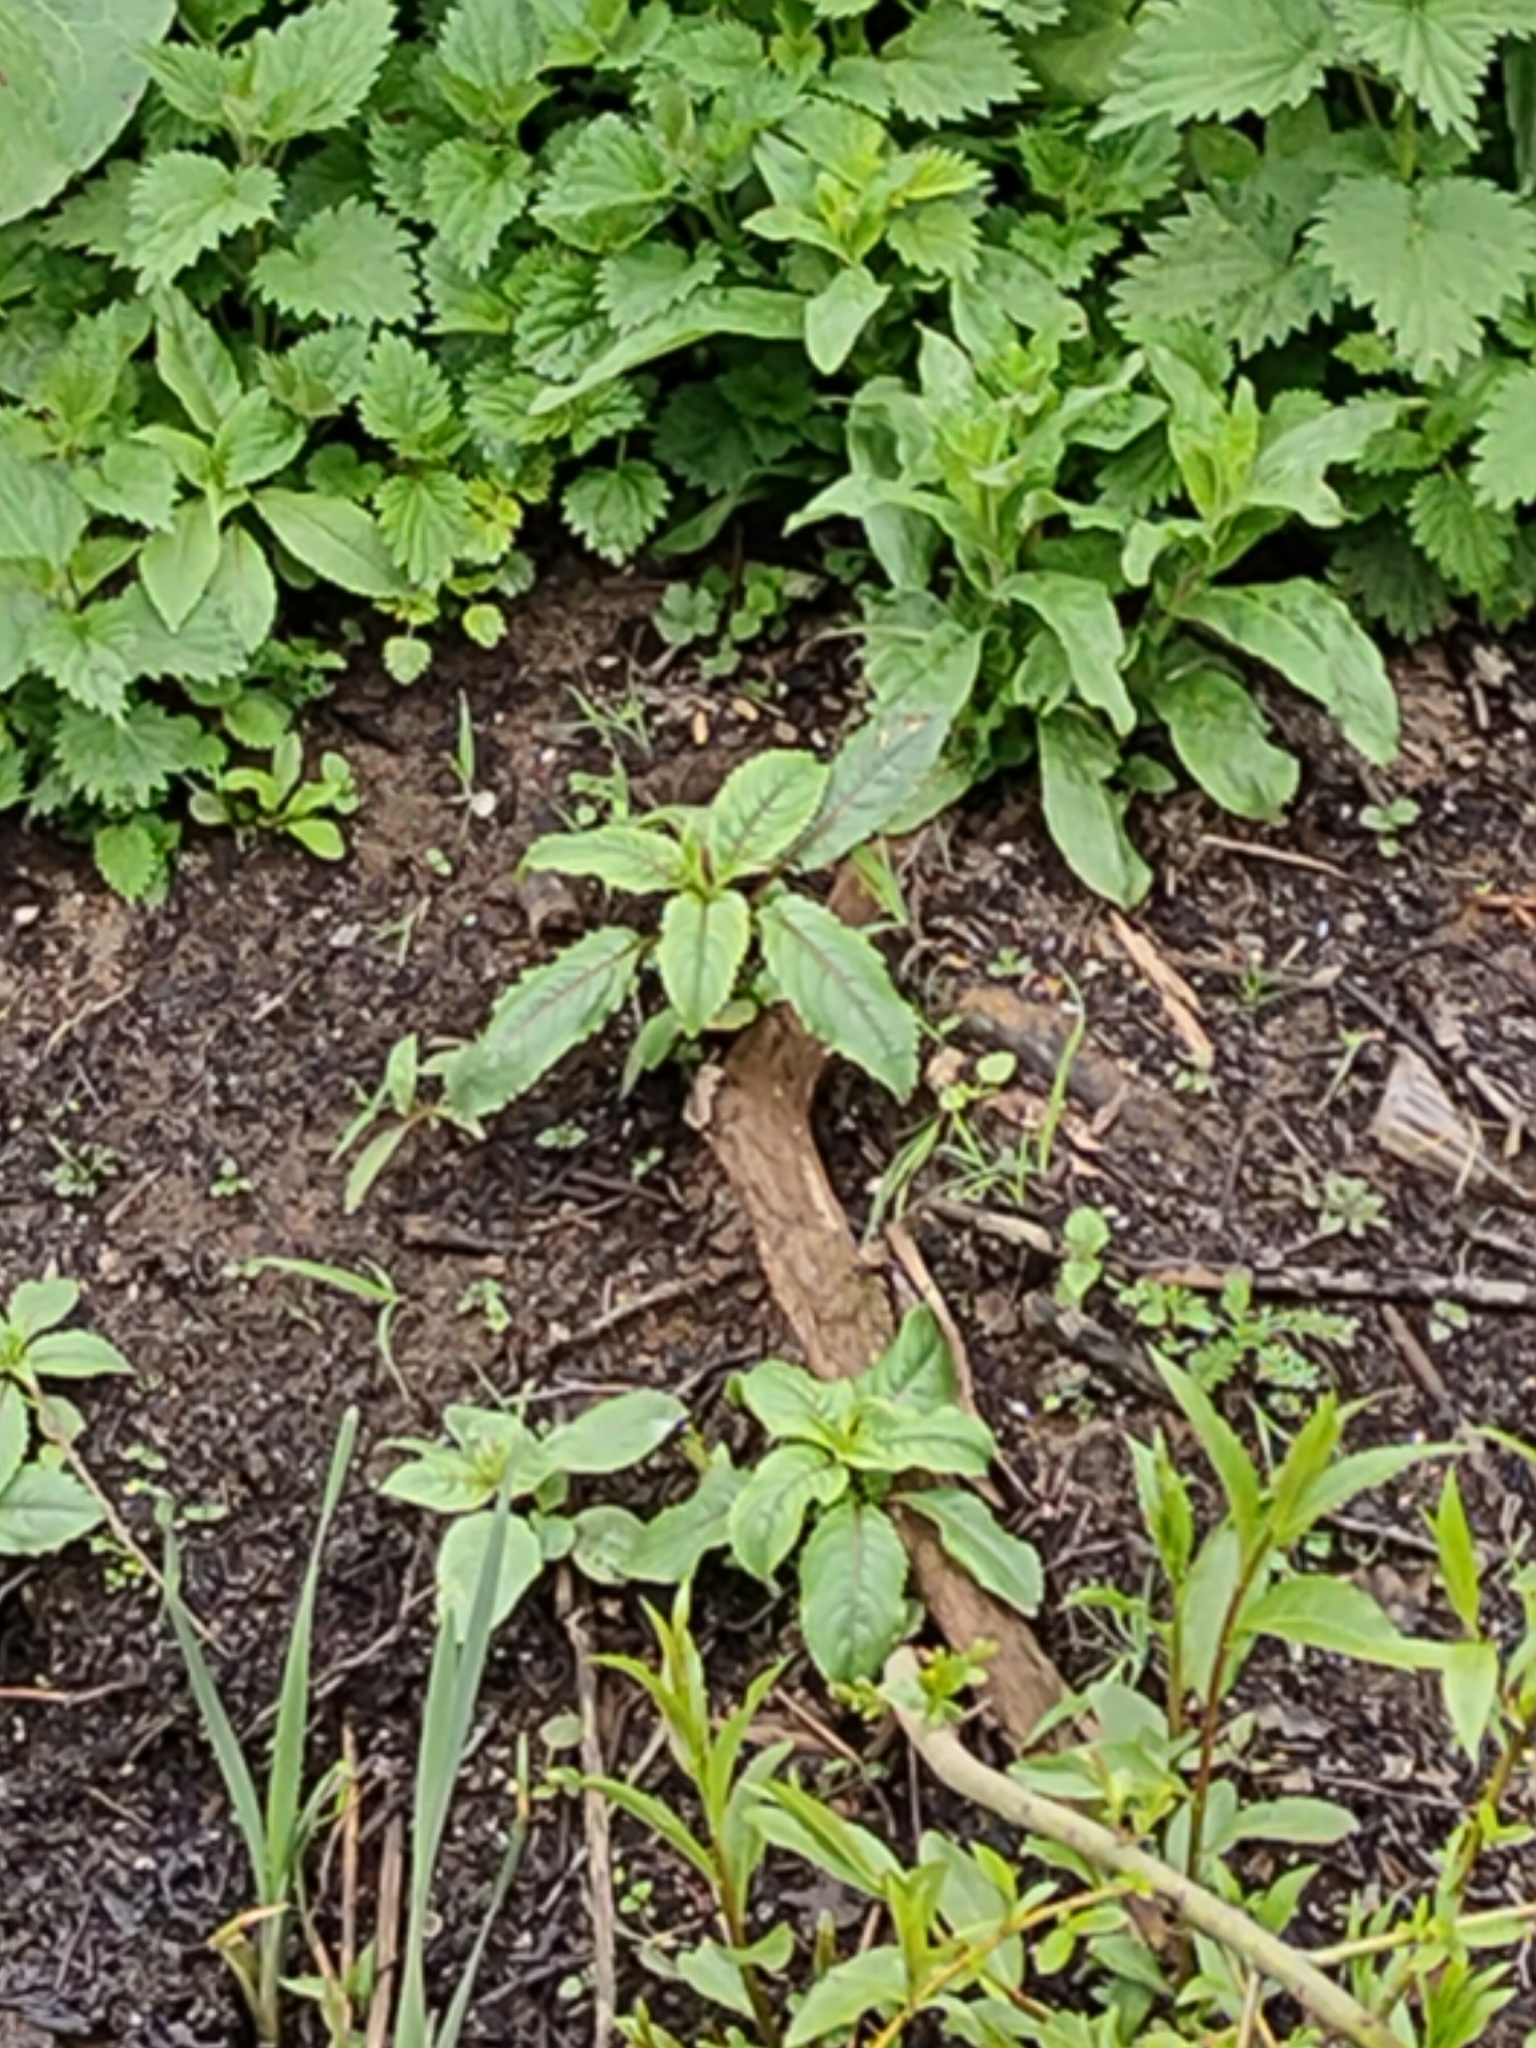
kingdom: Plantae
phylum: Tracheophyta
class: Magnoliopsida
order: Ericales
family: Balsaminaceae
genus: Impatiens
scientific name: Impatiens glandulifera
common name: Himalayan balsam
